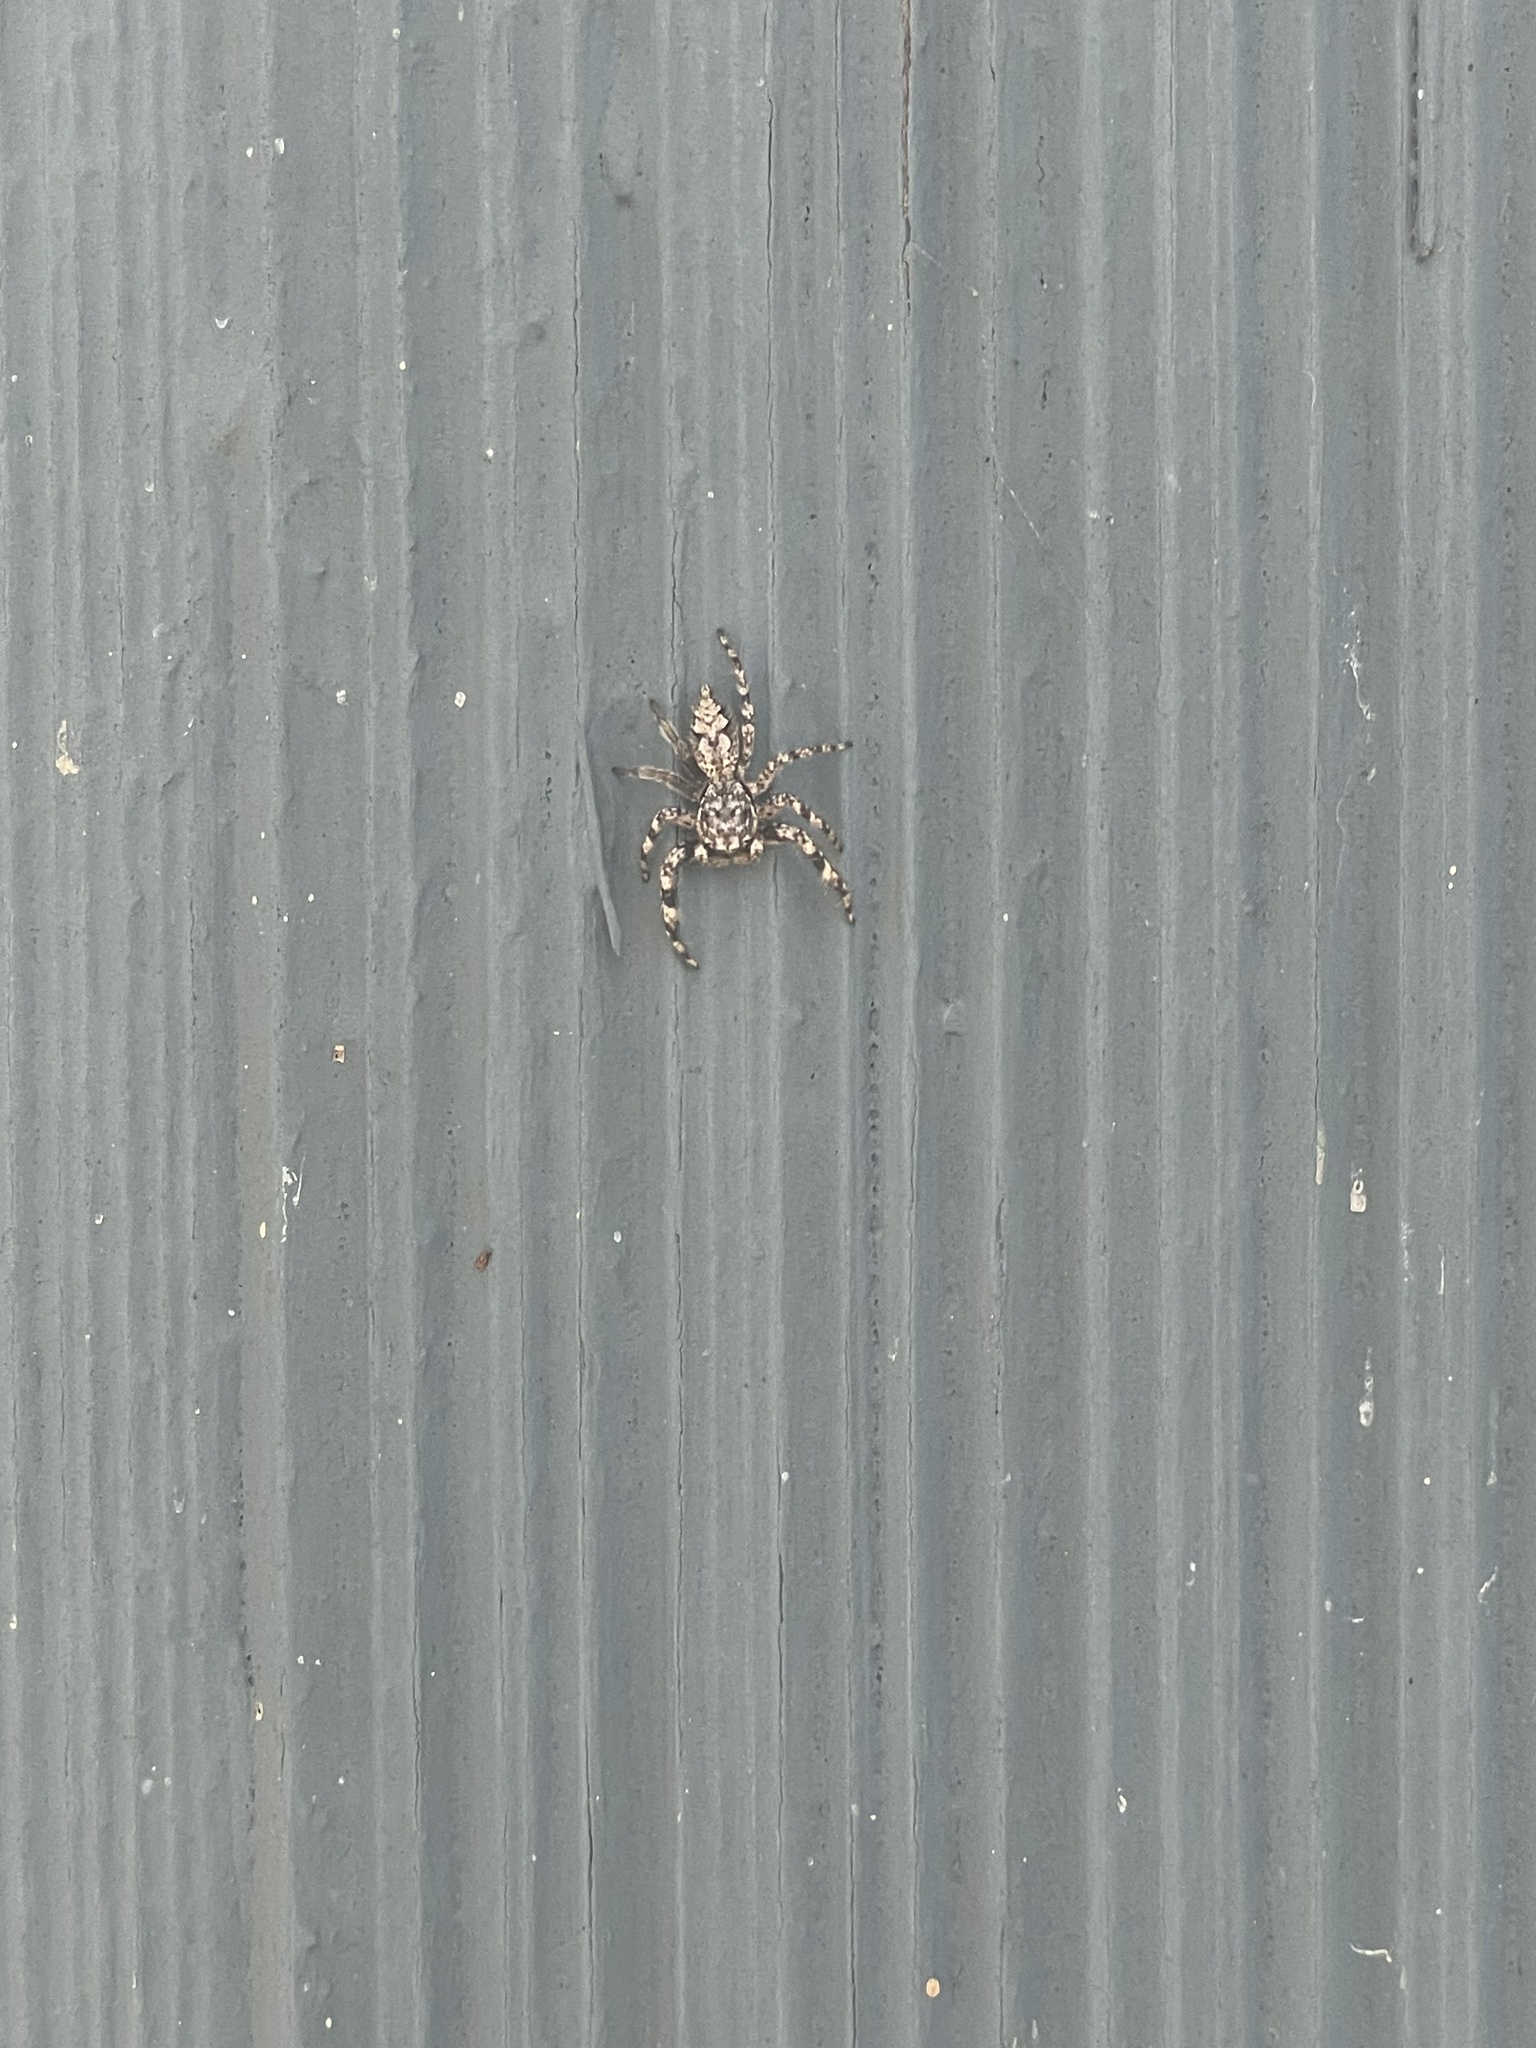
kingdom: Animalia
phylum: Arthropoda
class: Arachnida
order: Araneae
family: Salticidae
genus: Platycryptus
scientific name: Platycryptus undatus
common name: Tan jumping spider
